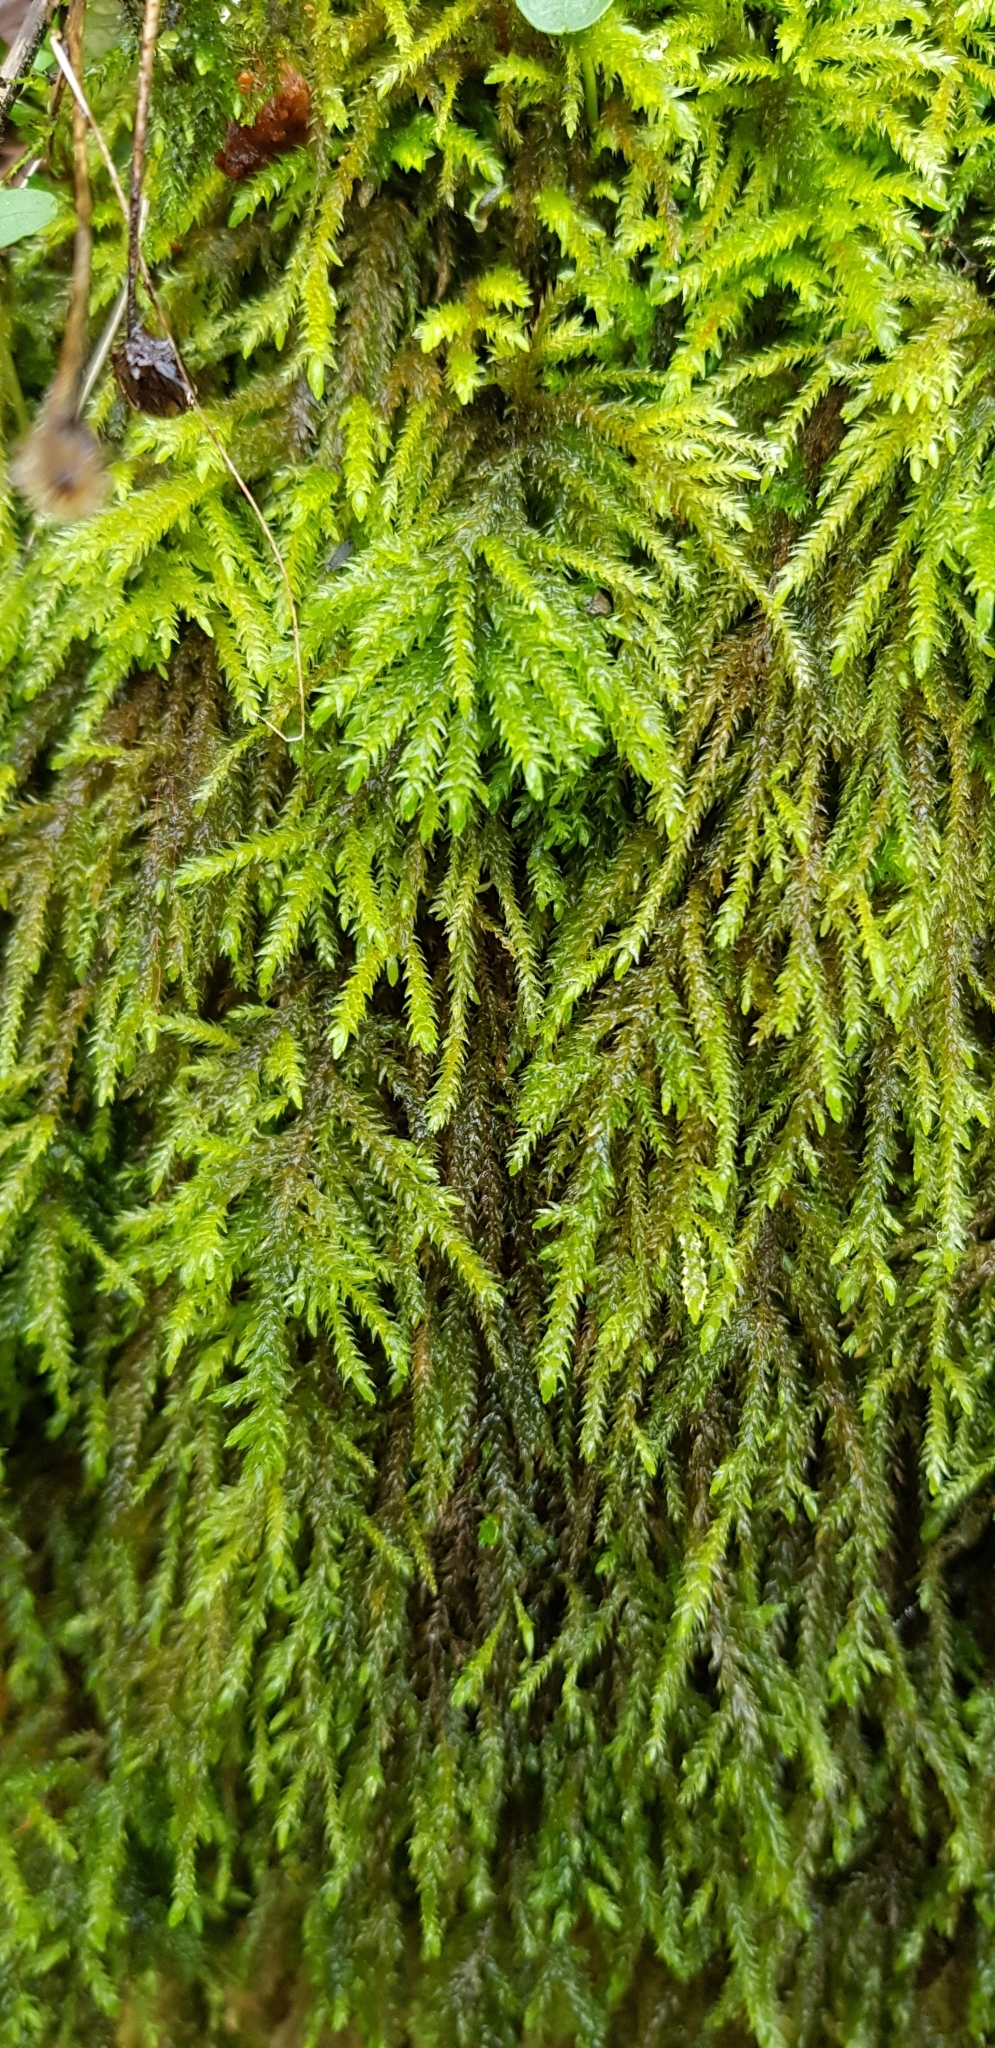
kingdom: Plantae
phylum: Bryophyta
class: Bryopsida
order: Hypnales
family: Neckeraceae
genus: Thamnobryum
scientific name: Thamnobryum alopecurum
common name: Fox-tail feather-moss
